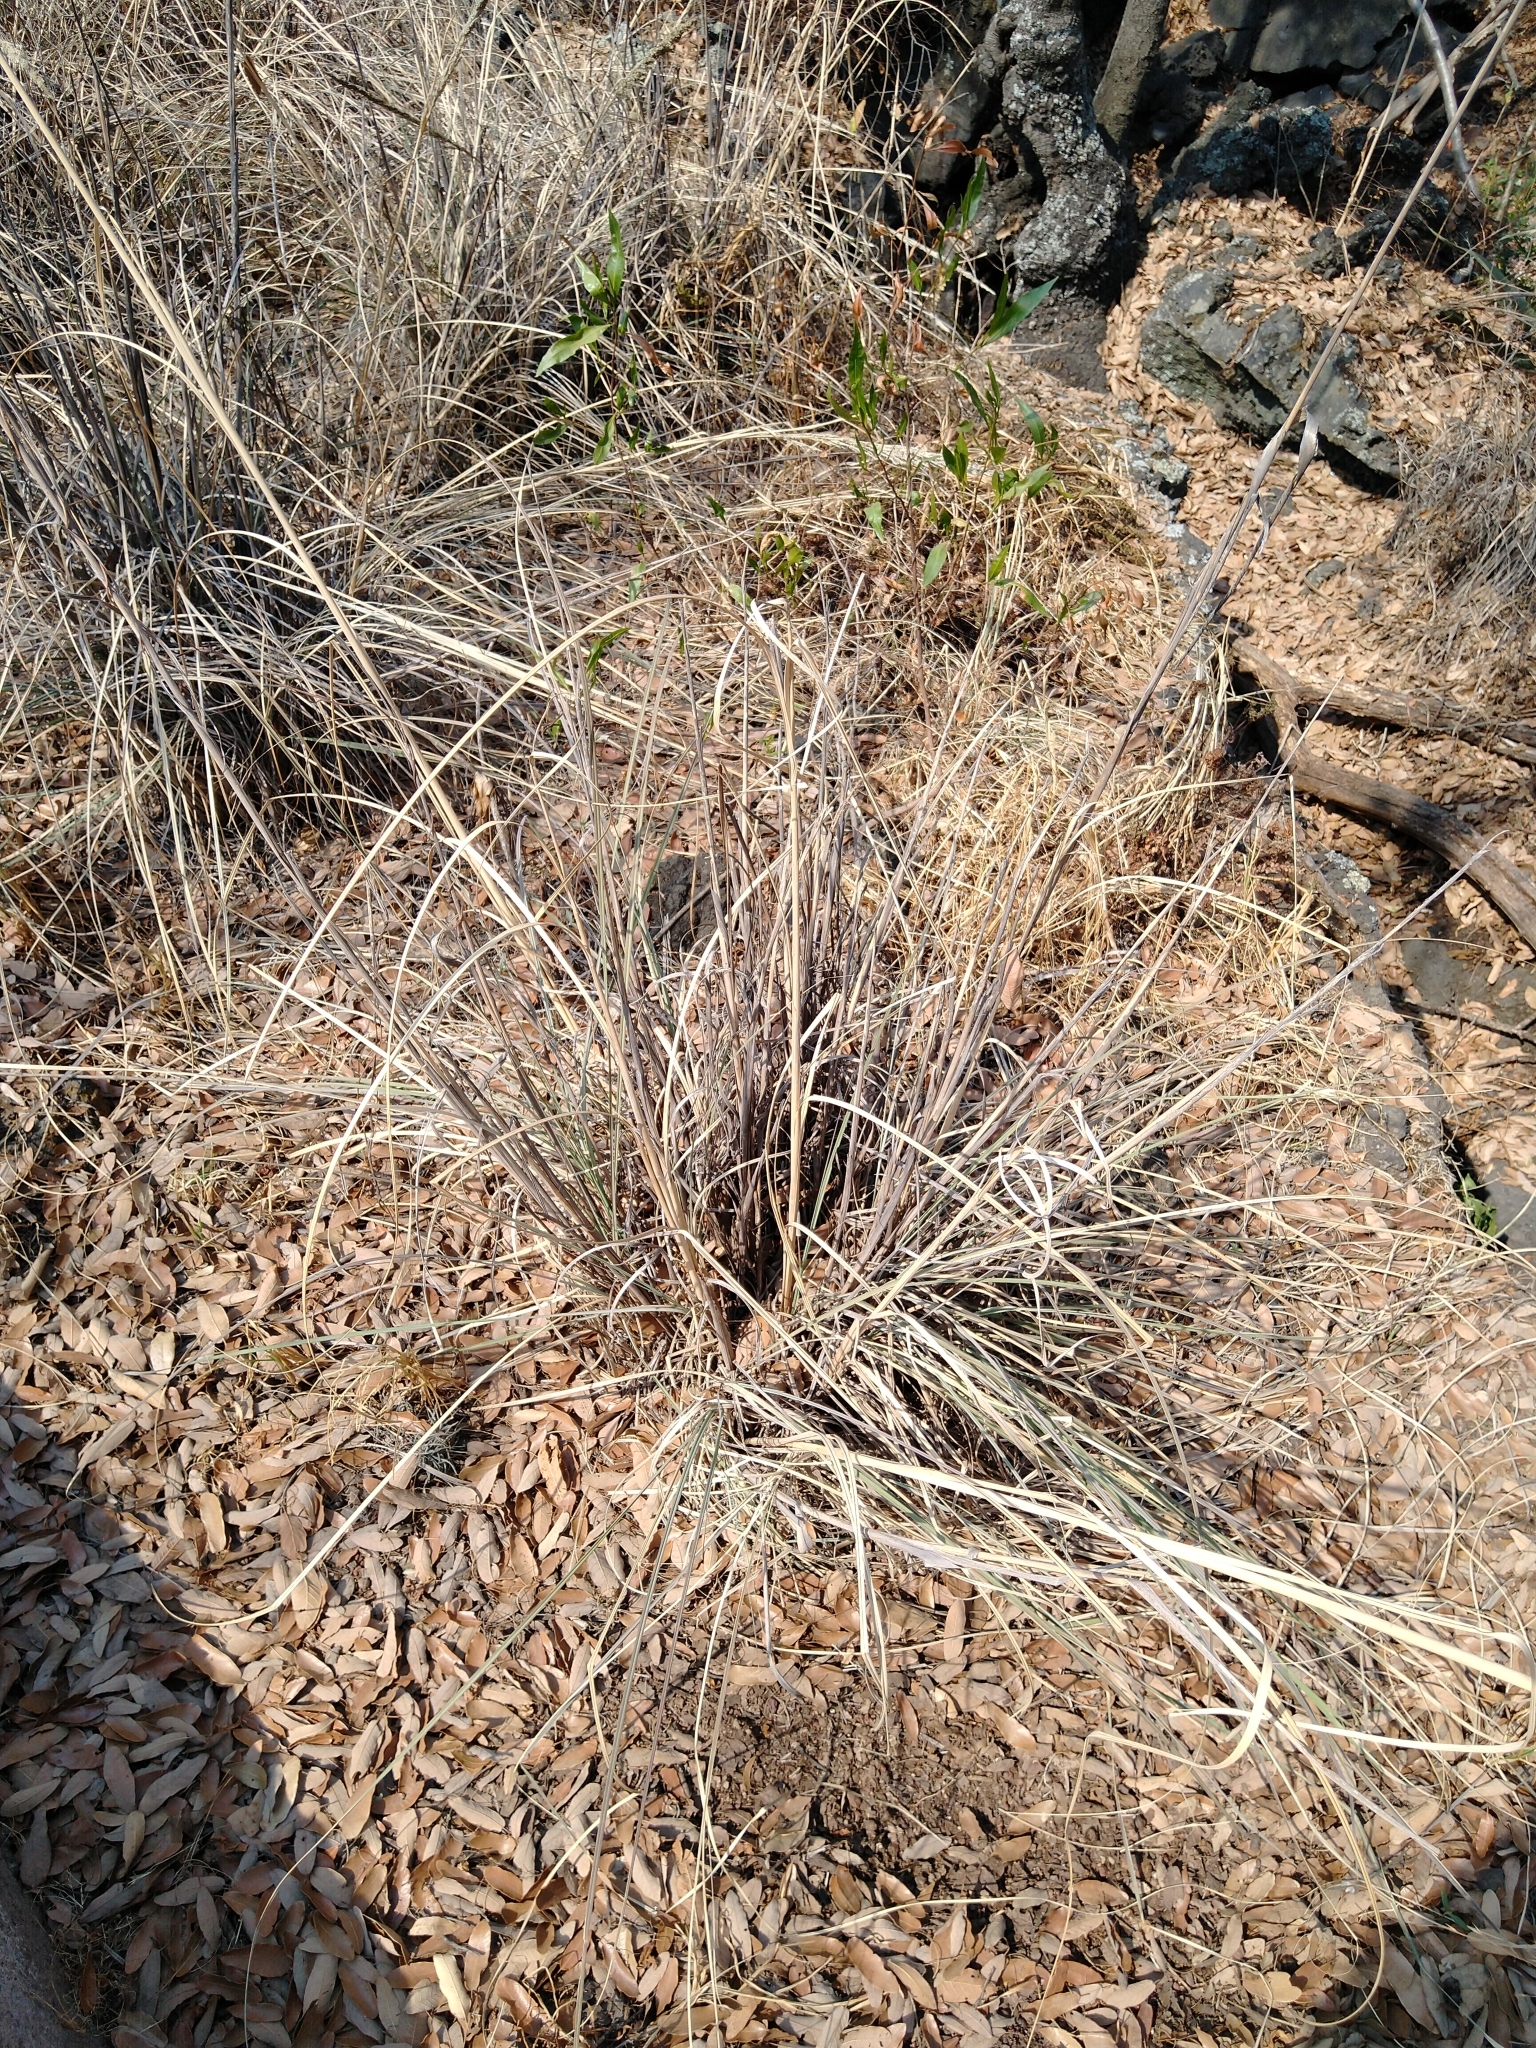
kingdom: Plantae
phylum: Tracheophyta
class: Liliopsida
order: Poales
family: Poaceae
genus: Muhlenbergia
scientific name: Muhlenbergia robusta
